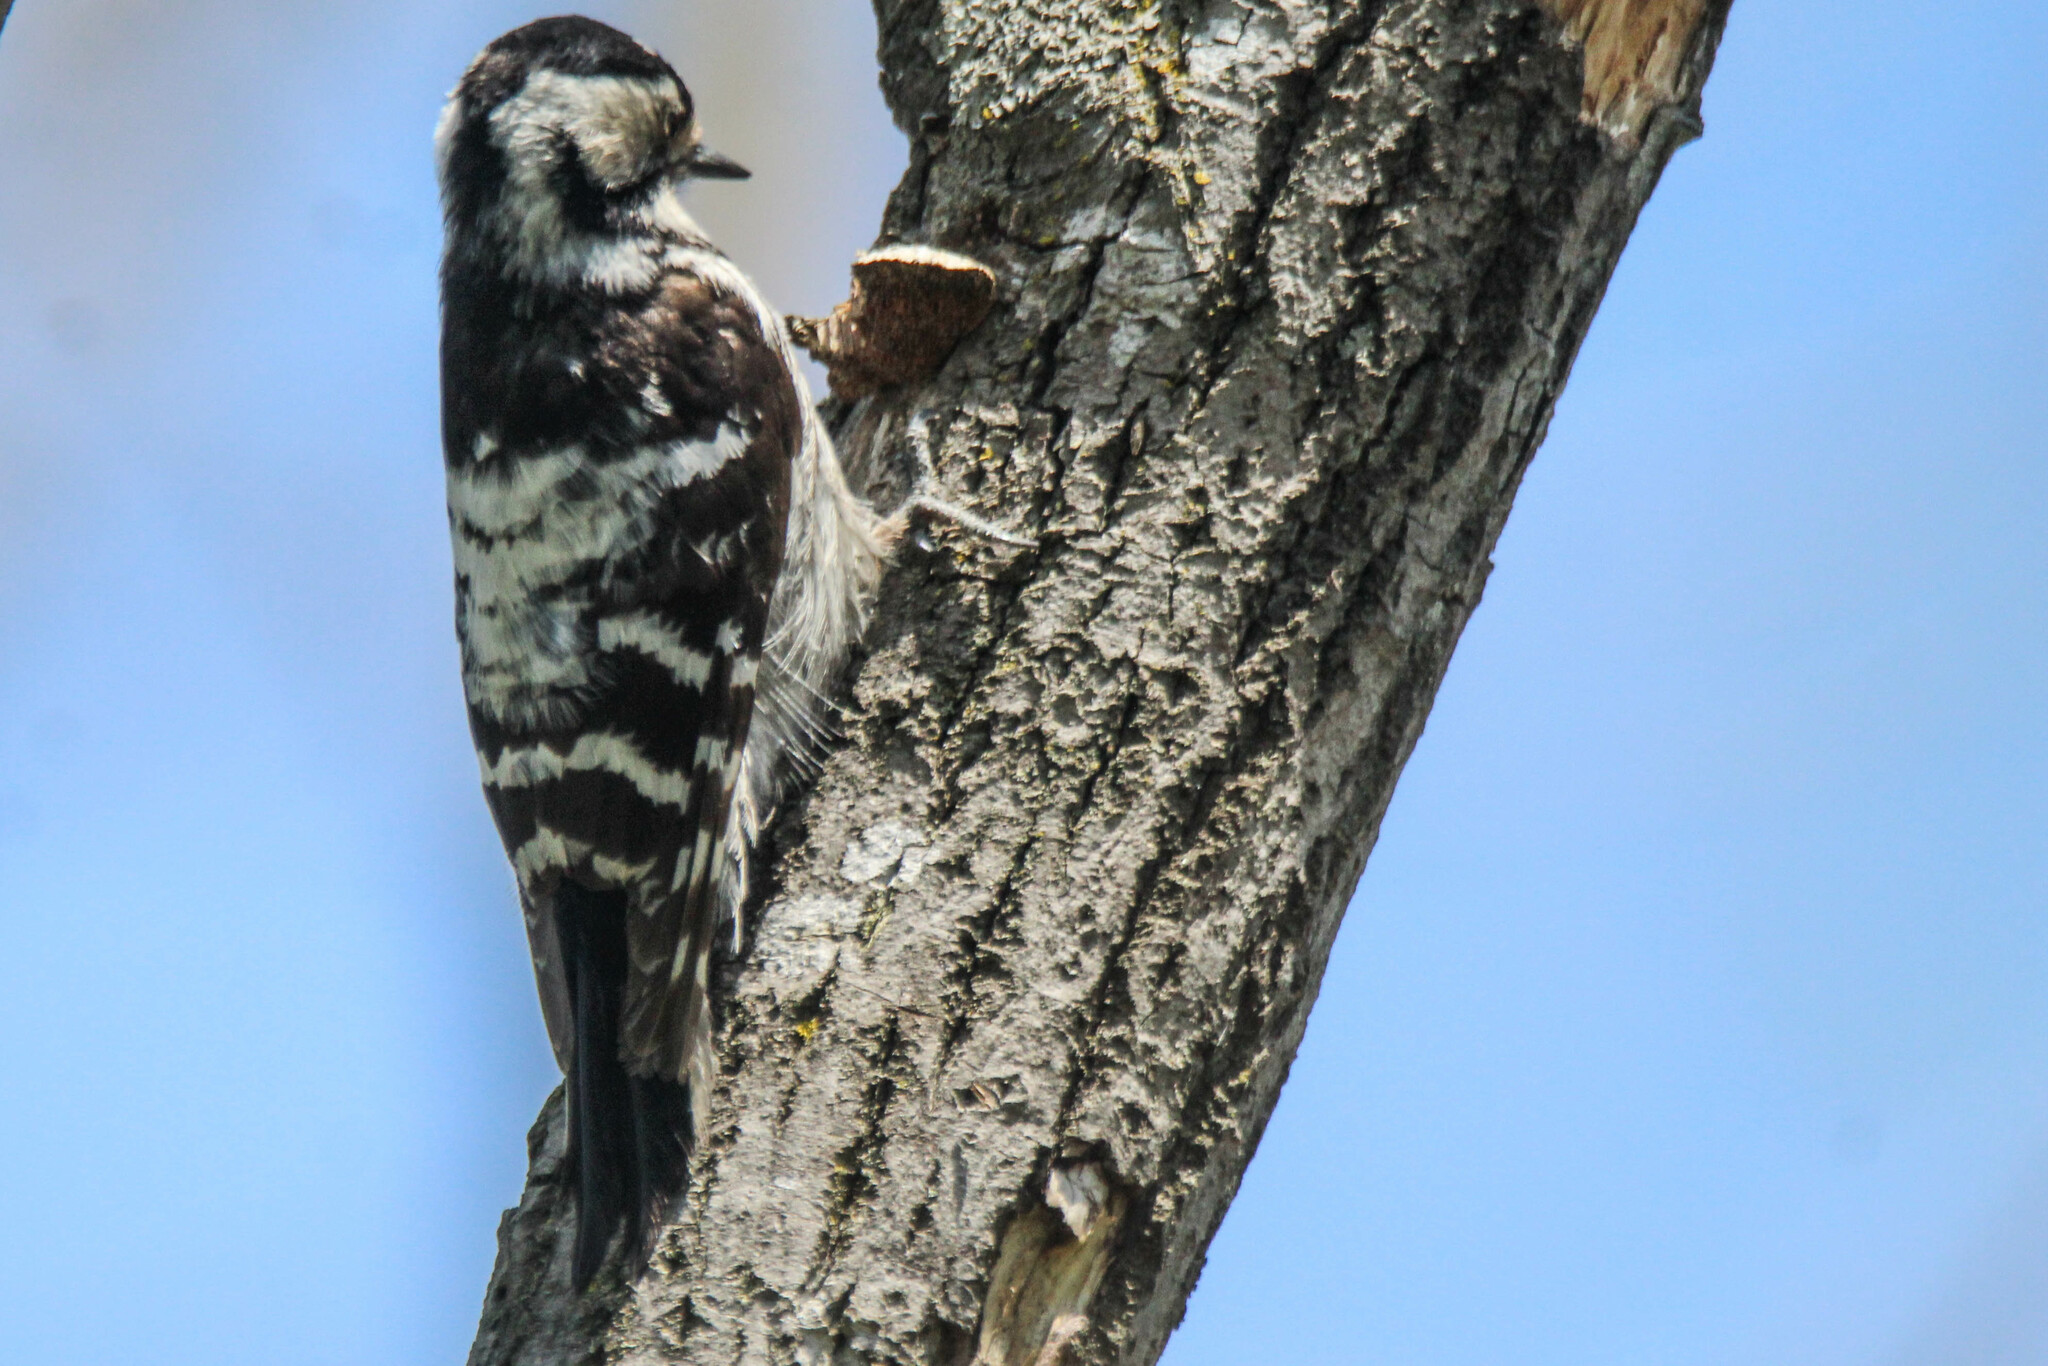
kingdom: Animalia
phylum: Chordata
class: Aves
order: Piciformes
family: Picidae
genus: Dryobates
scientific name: Dryobates minor
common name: Lesser spotted woodpecker
